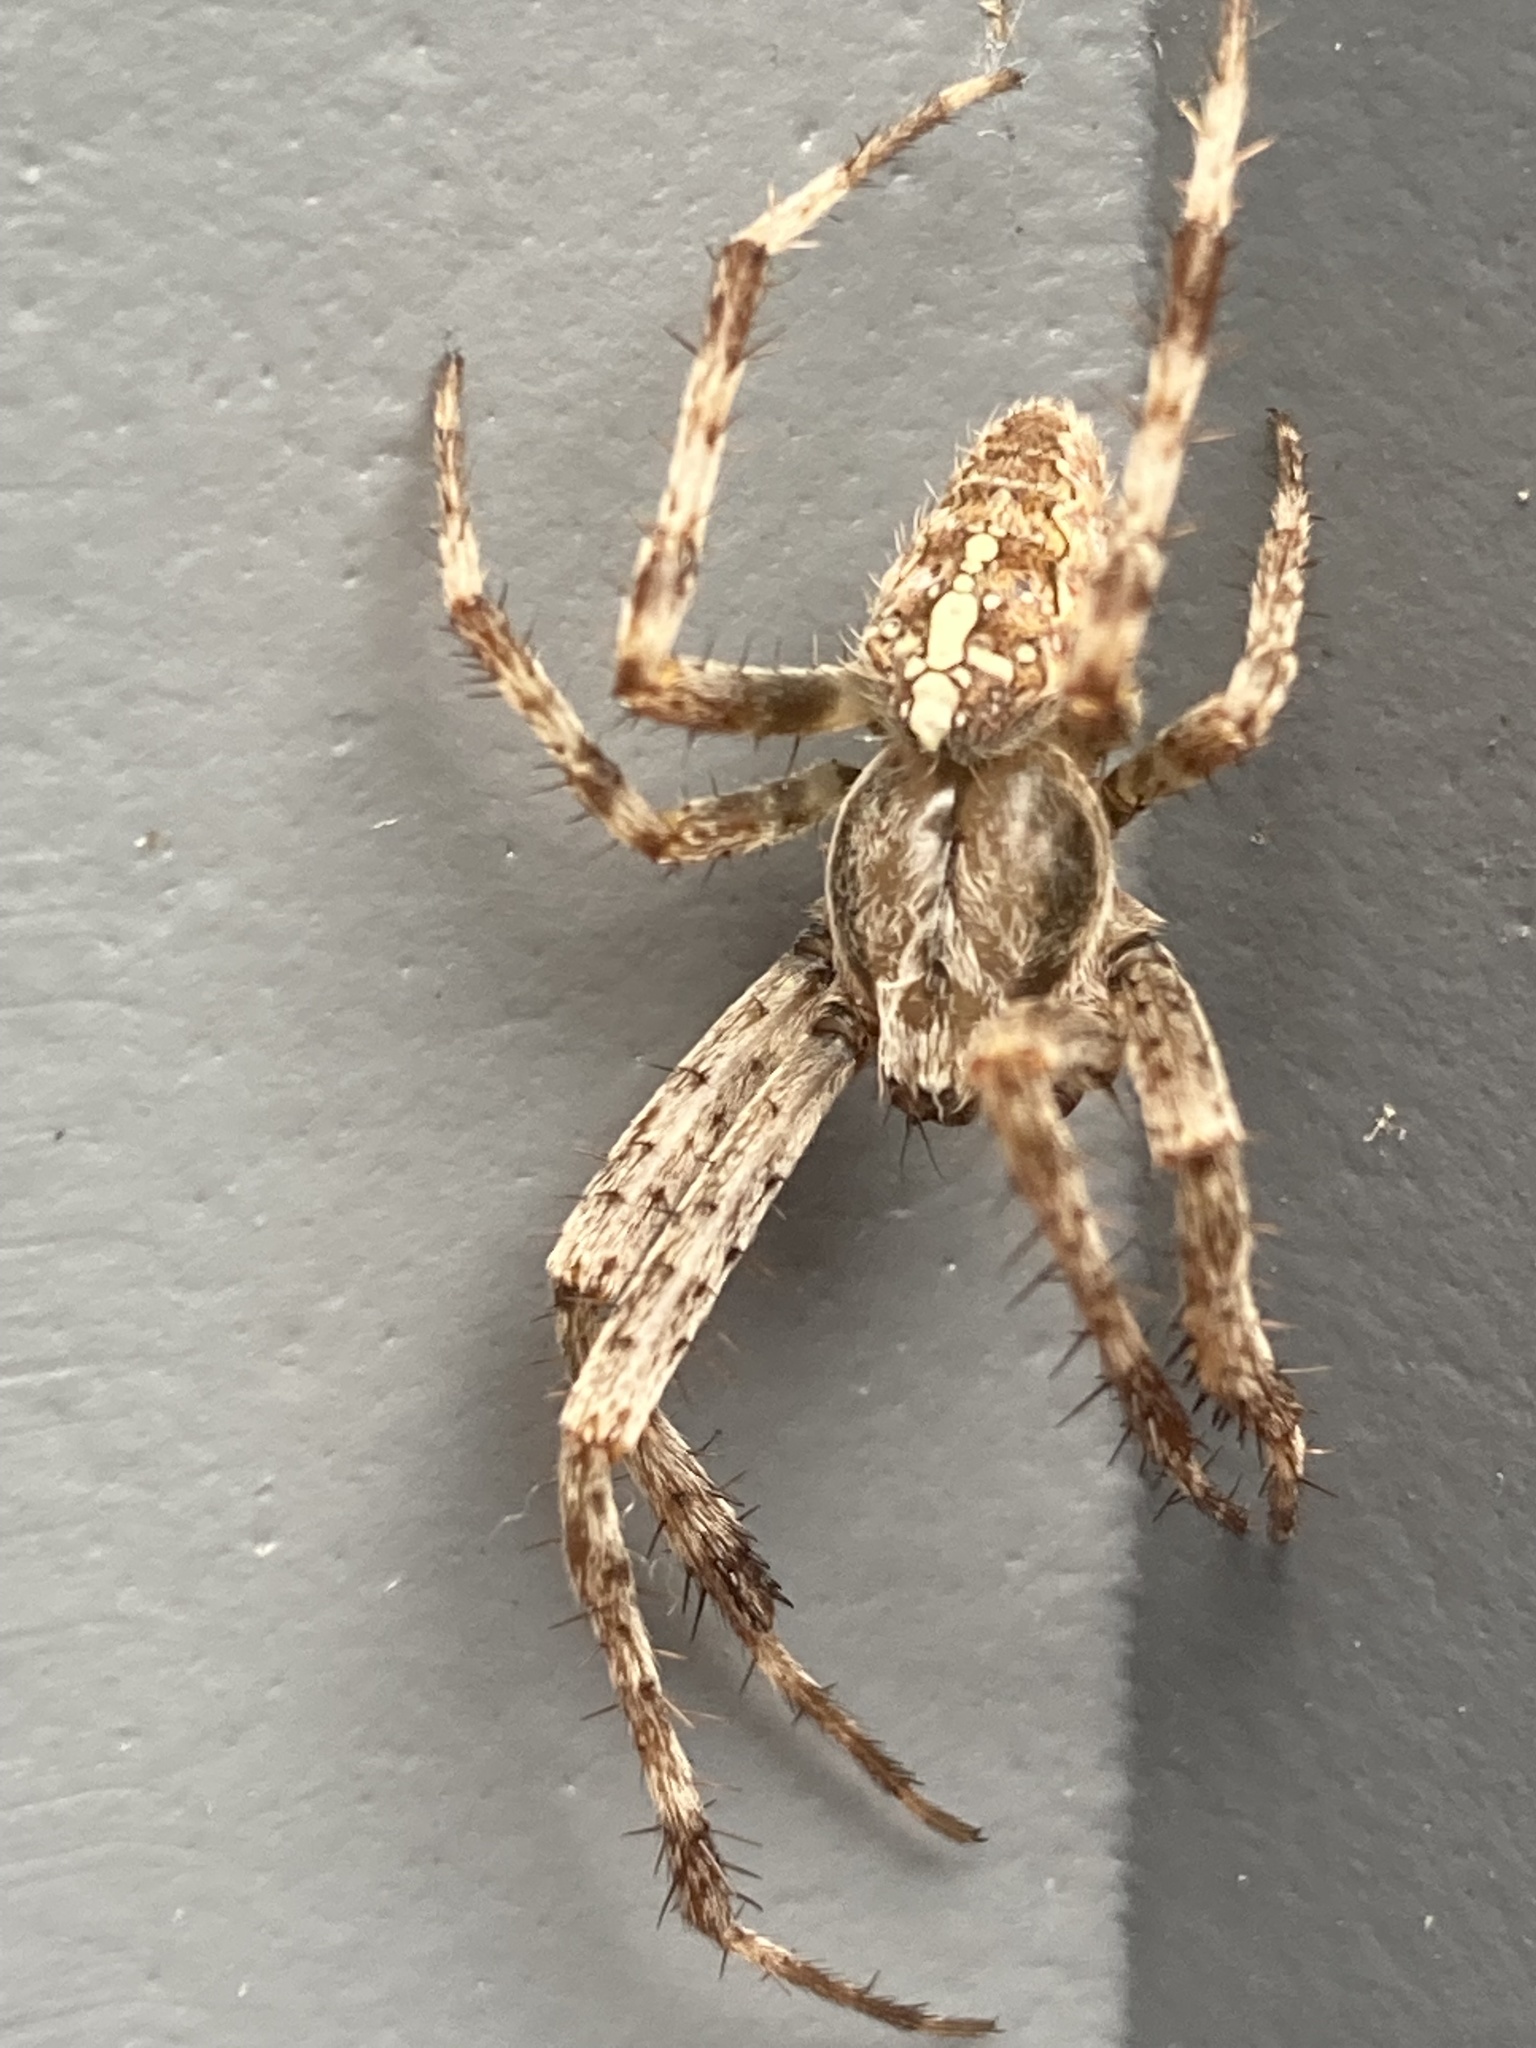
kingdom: Animalia
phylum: Arthropoda
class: Arachnida
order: Araneae
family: Araneidae
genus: Araneus
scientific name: Araneus diadematus
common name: Cross orbweaver
